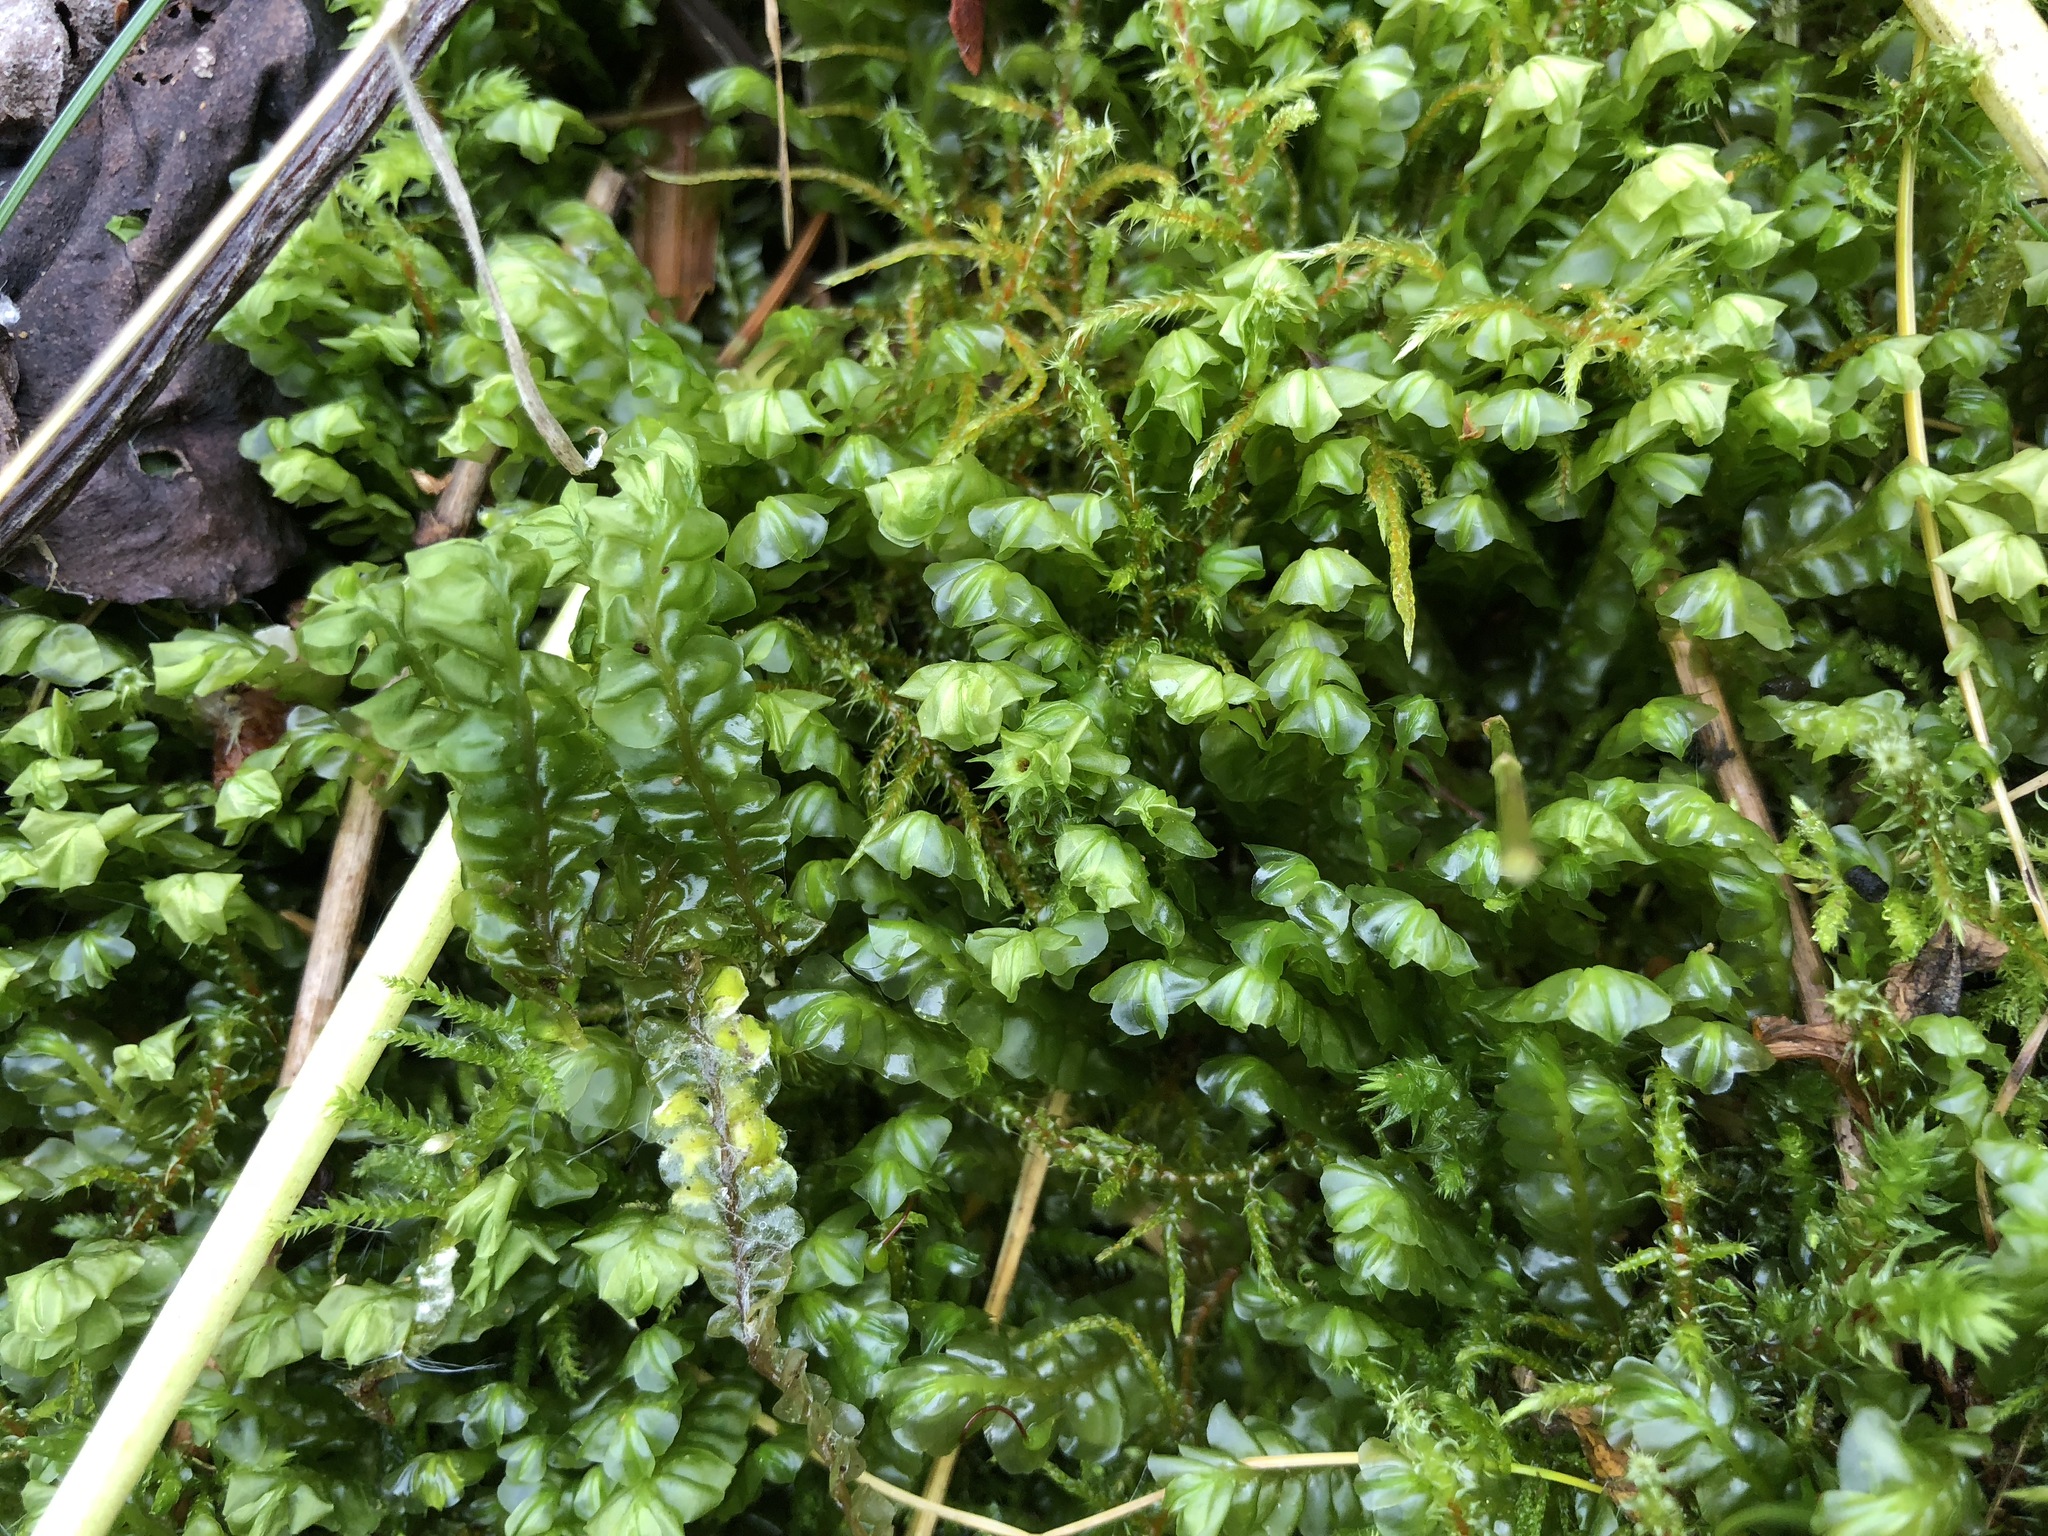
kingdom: Plantae
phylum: Marchantiophyta
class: Jungermanniopsida
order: Jungermanniales
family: Plagiochilaceae
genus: Plagiochila
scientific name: Plagiochila asplenioides
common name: Greater featherwort
